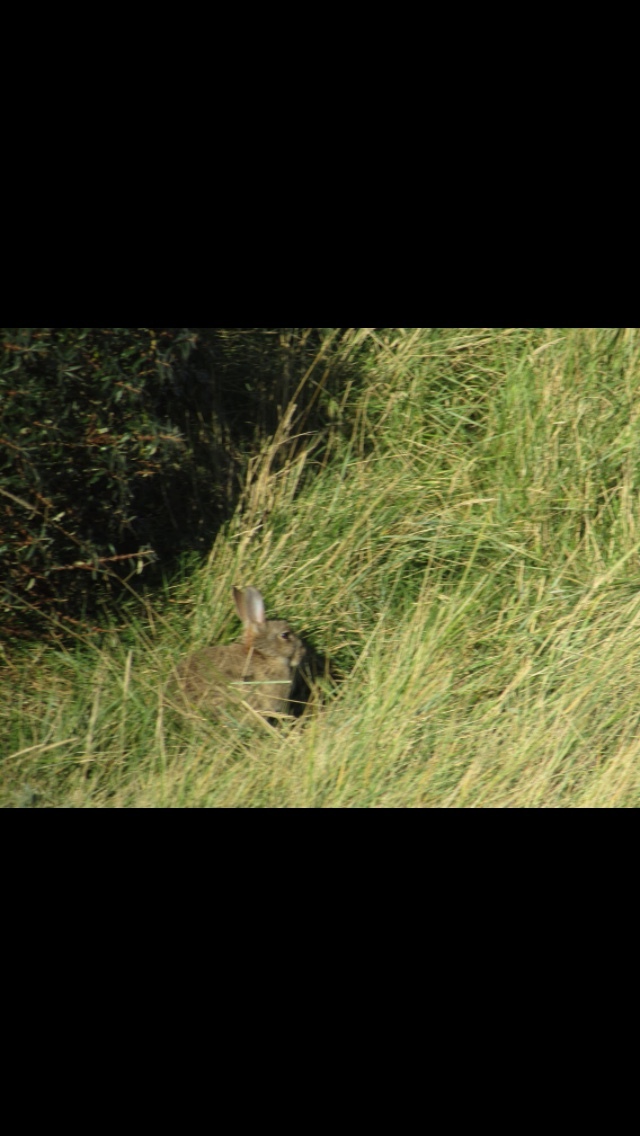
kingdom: Animalia
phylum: Chordata
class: Mammalia
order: Lagomorpha
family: Leporidae
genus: Oryctolagus
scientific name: Oryctolagus cuniculus
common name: European rabbit
